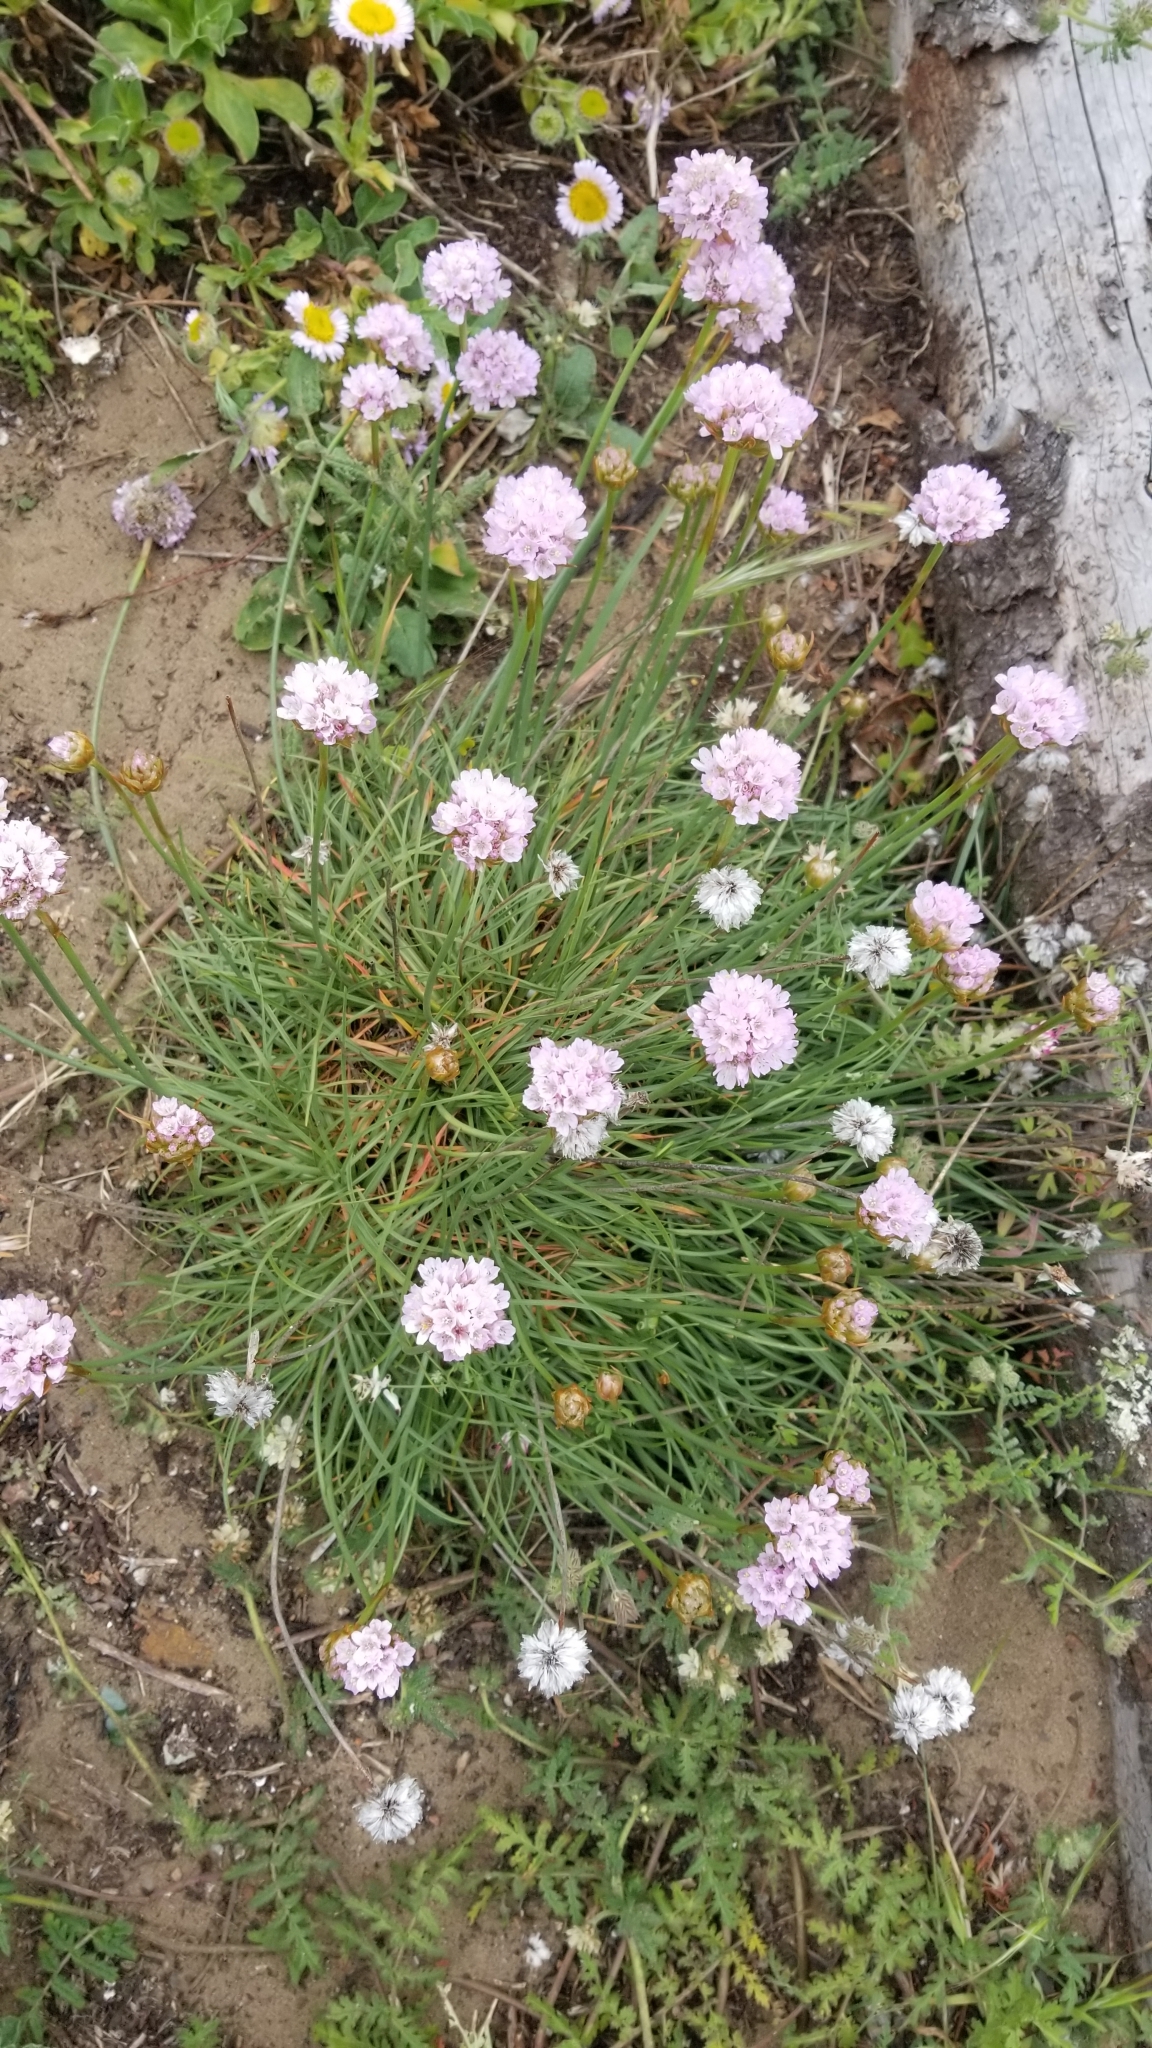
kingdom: Plantae
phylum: Tracheophyta
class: Magnoliopsida
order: Caryophyllales
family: Plumbaginaceae
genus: Armeria
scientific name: Armeria maritima
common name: Thrift
